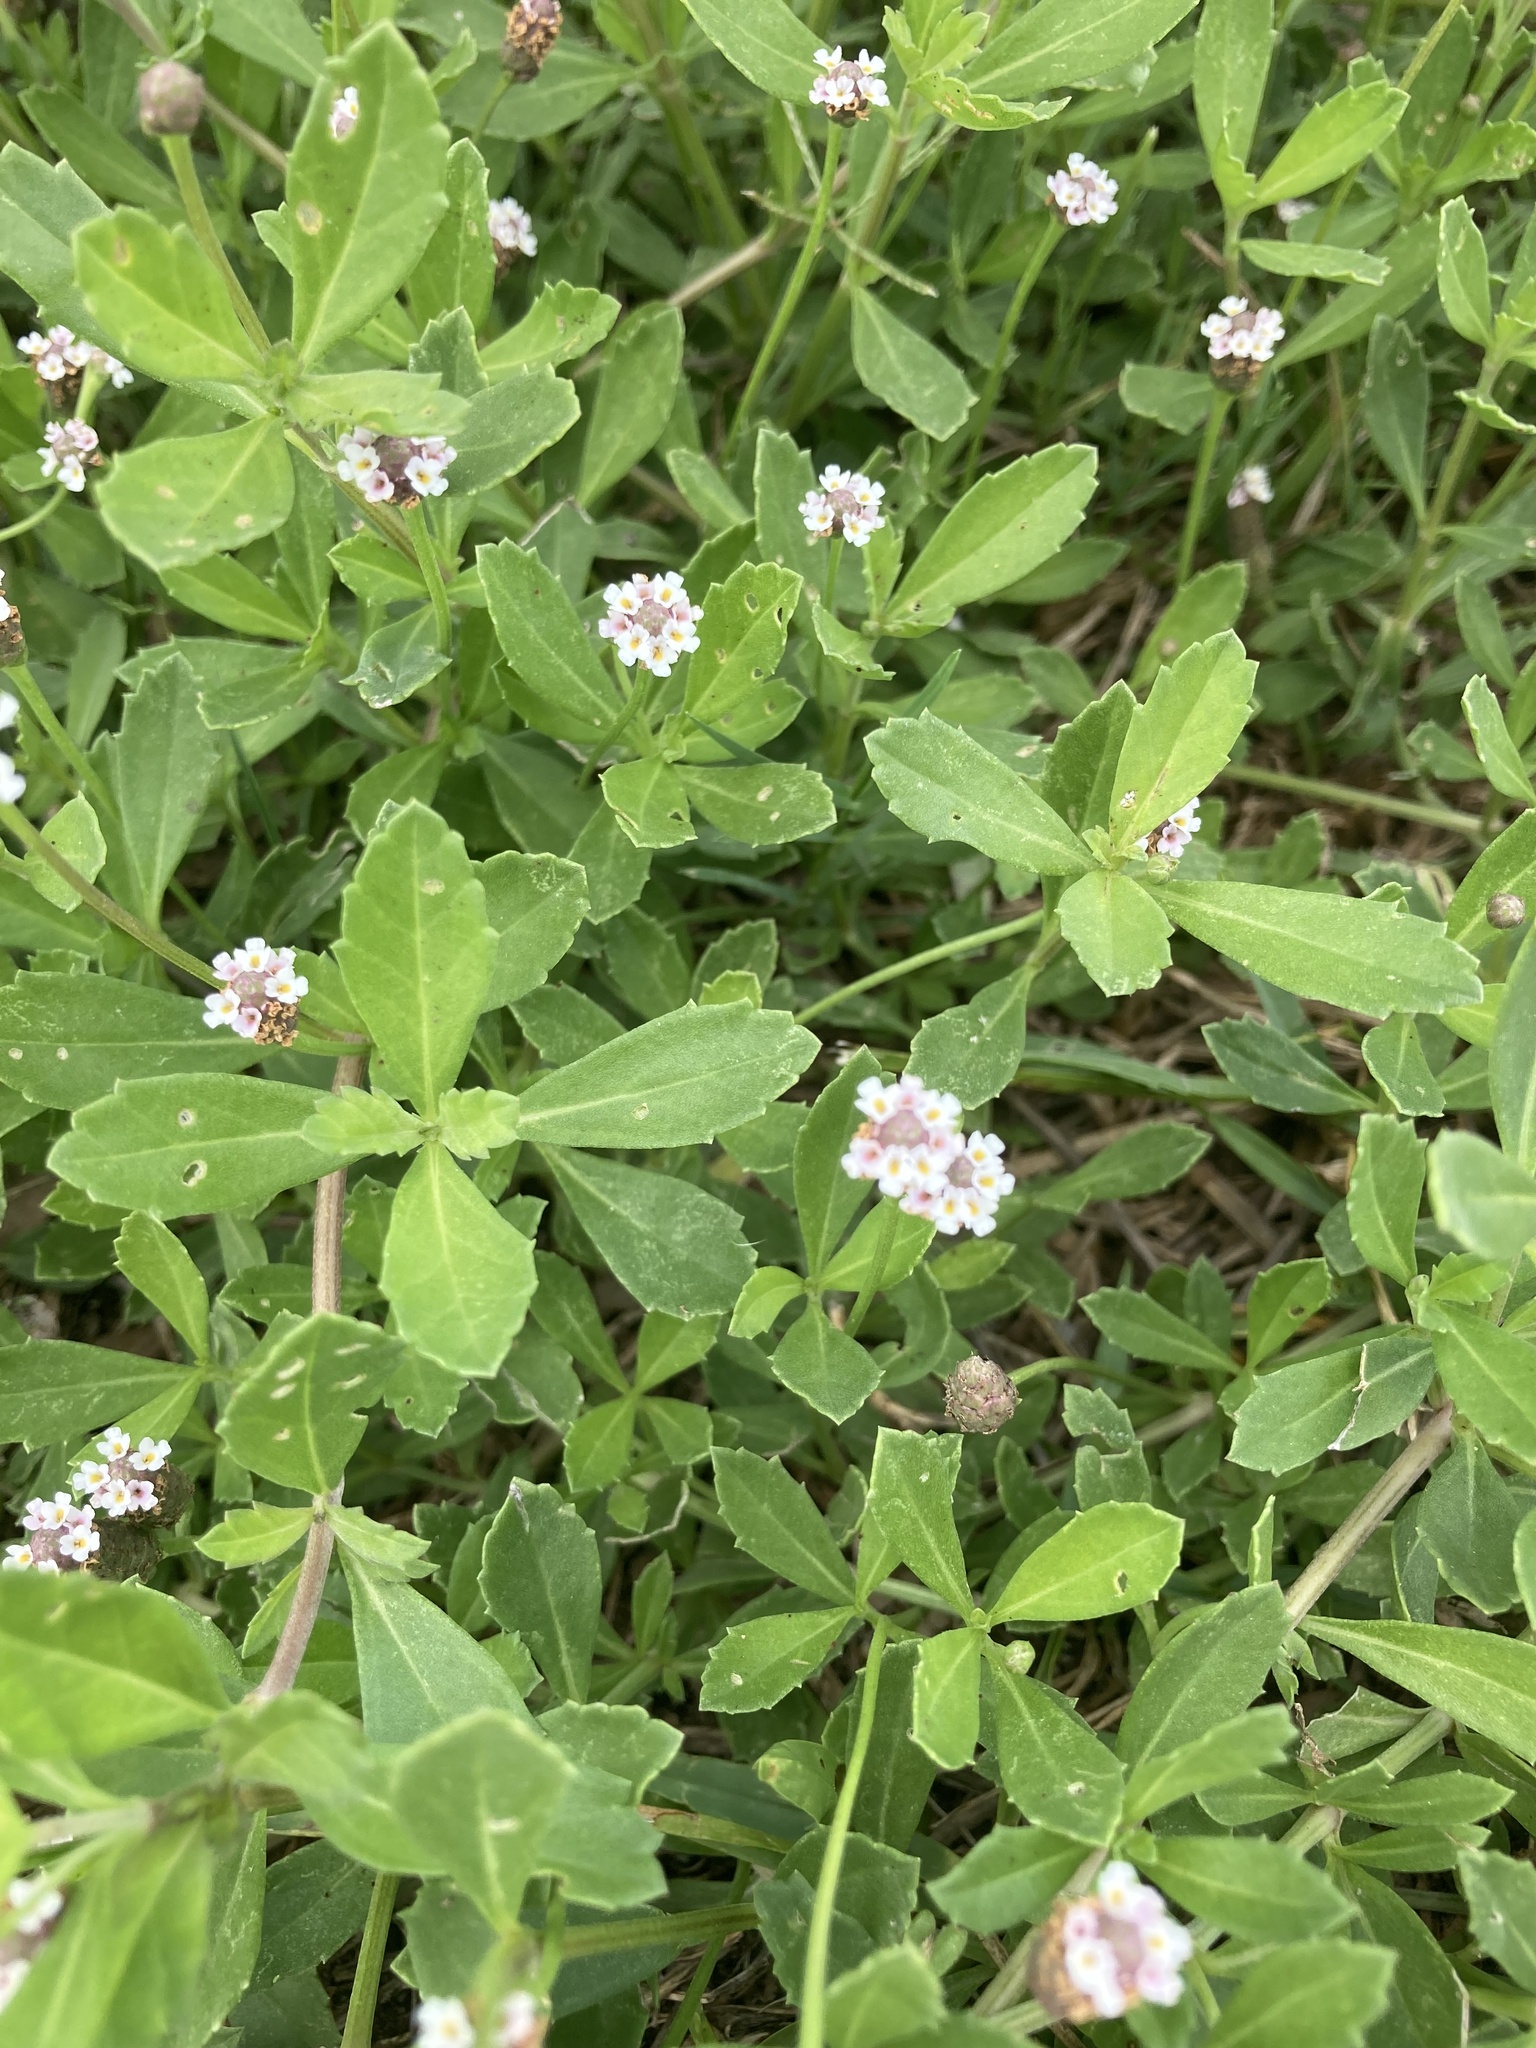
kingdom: Plantae
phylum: Tracheophyta
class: Magnoliopsida
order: Lamiales
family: Verbenaceae
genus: Phyla
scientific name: Phyla nodiflora
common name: Frogfruit
